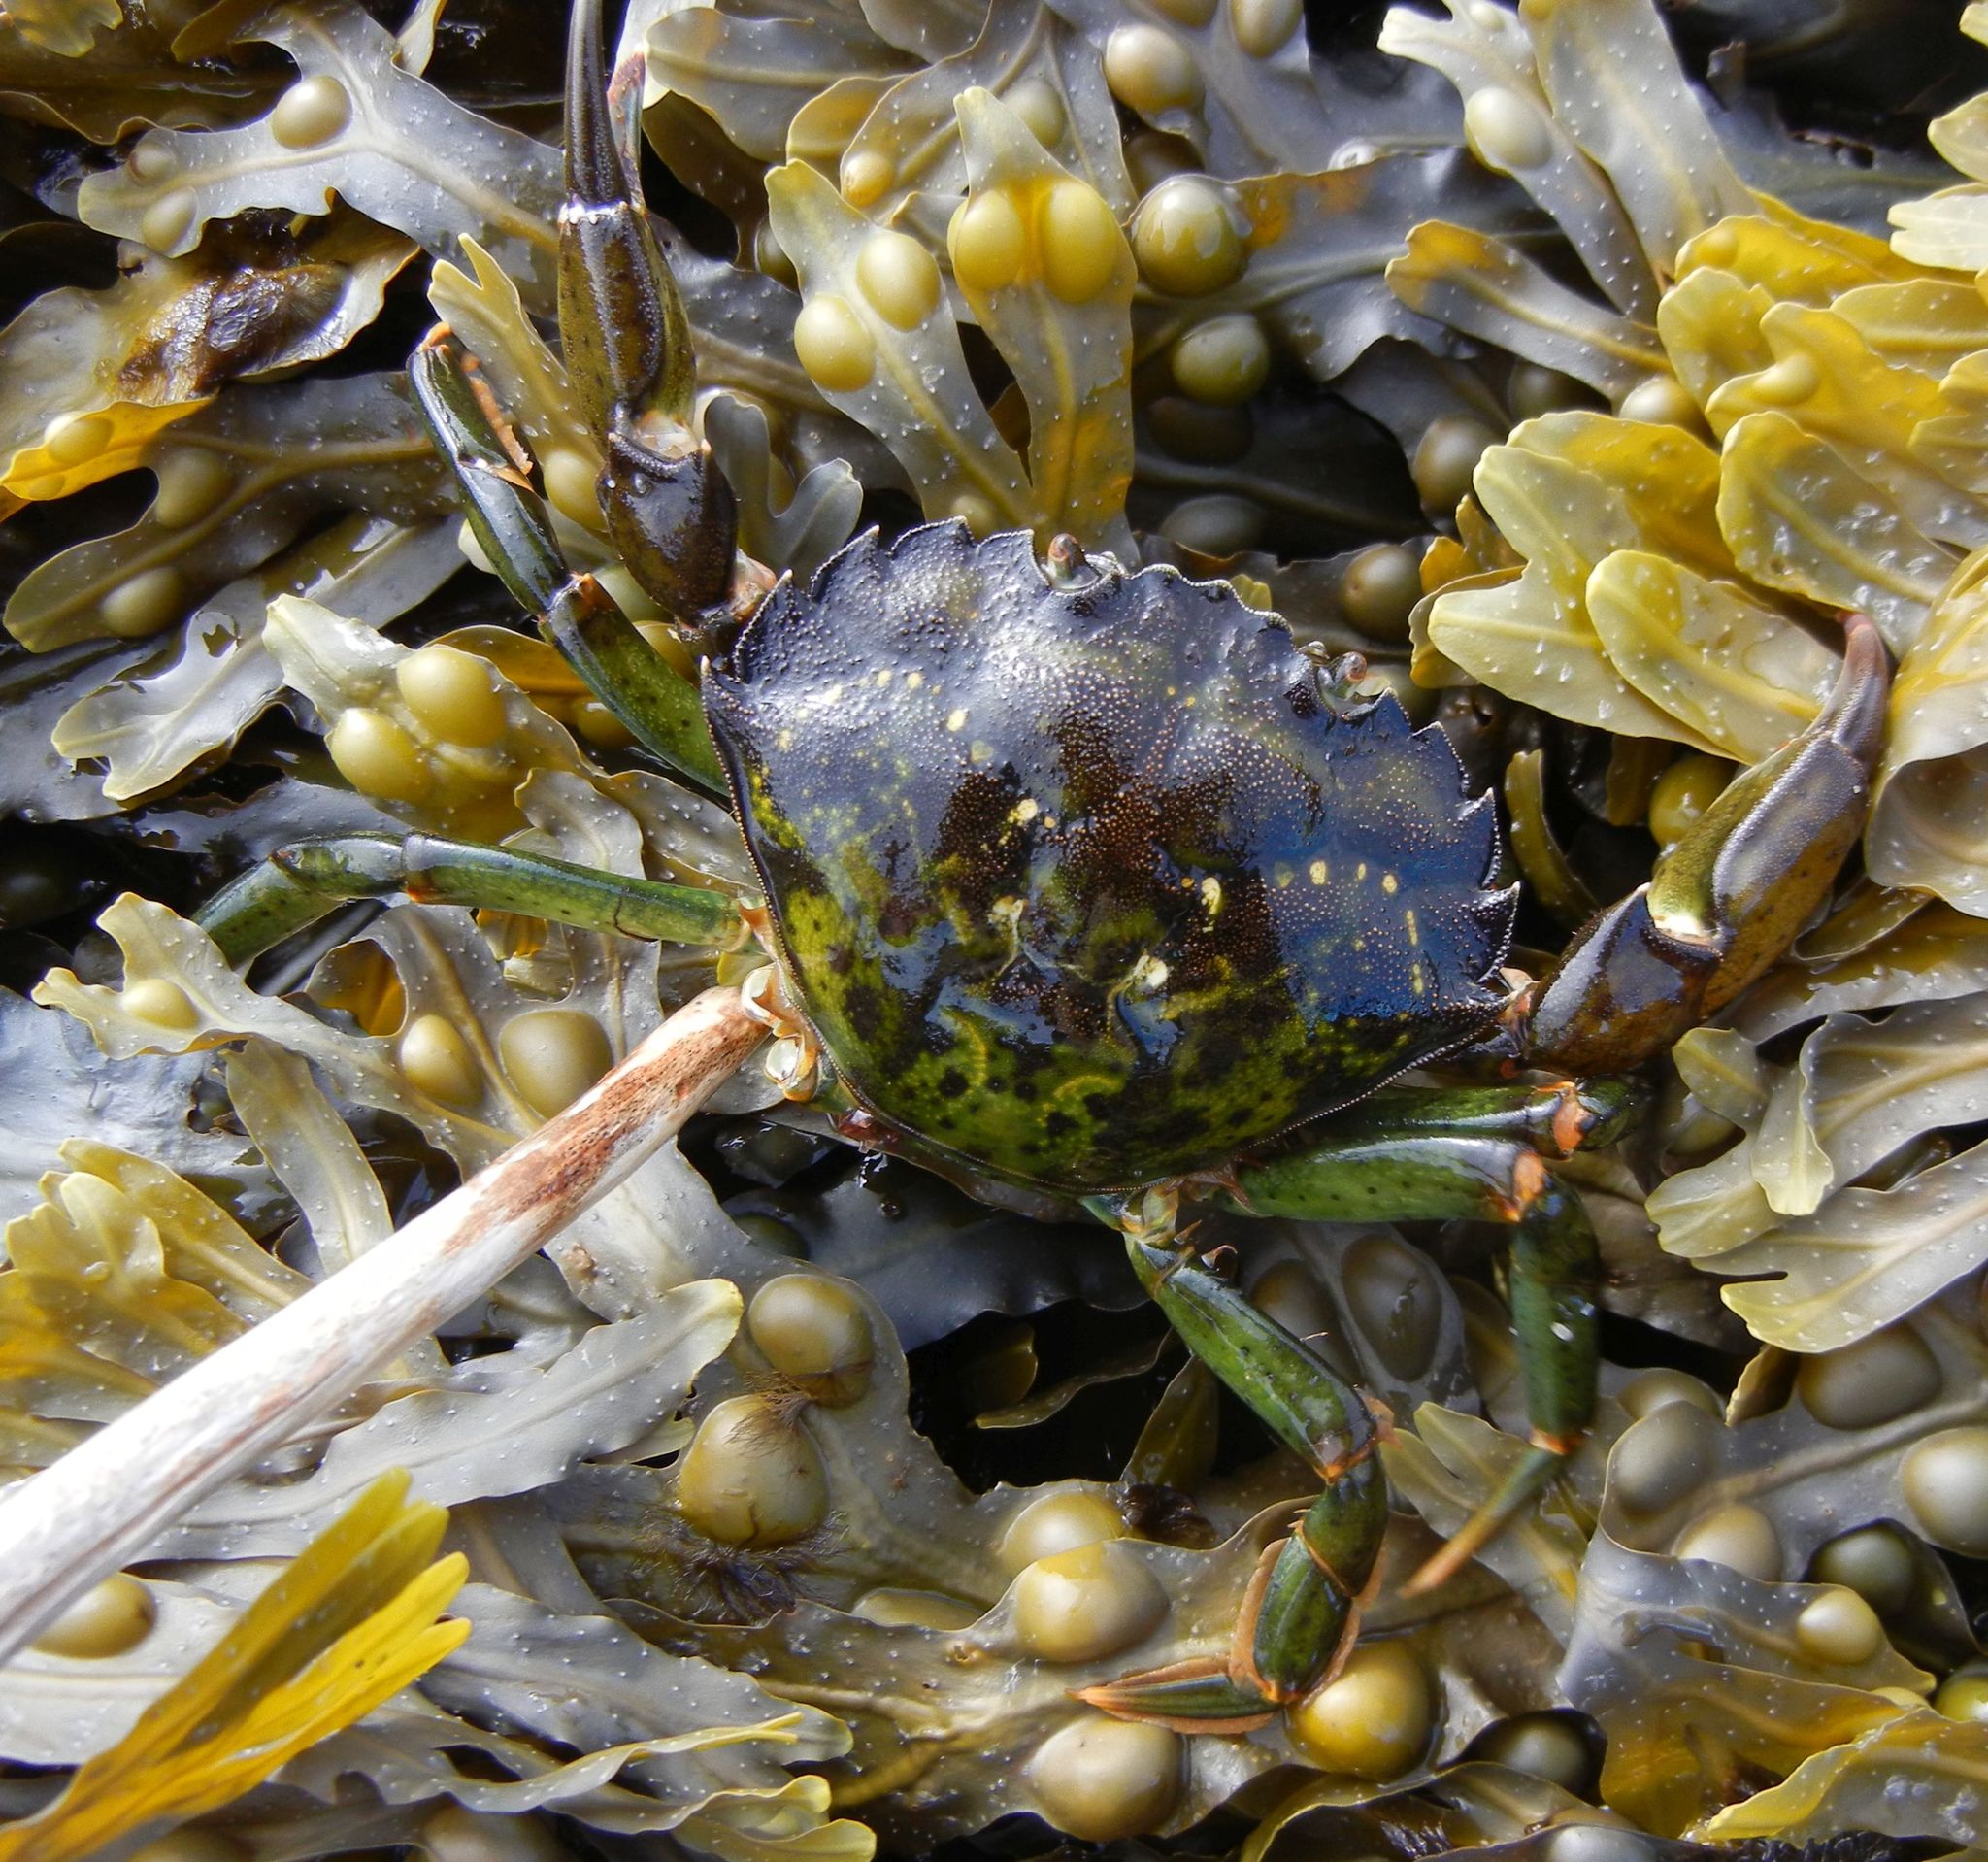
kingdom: Animalia
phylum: Arthropoda
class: Malacostraca
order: Decapoda
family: Carcinidae
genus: Carcinus
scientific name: Carcinus maenas
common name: European green crab
